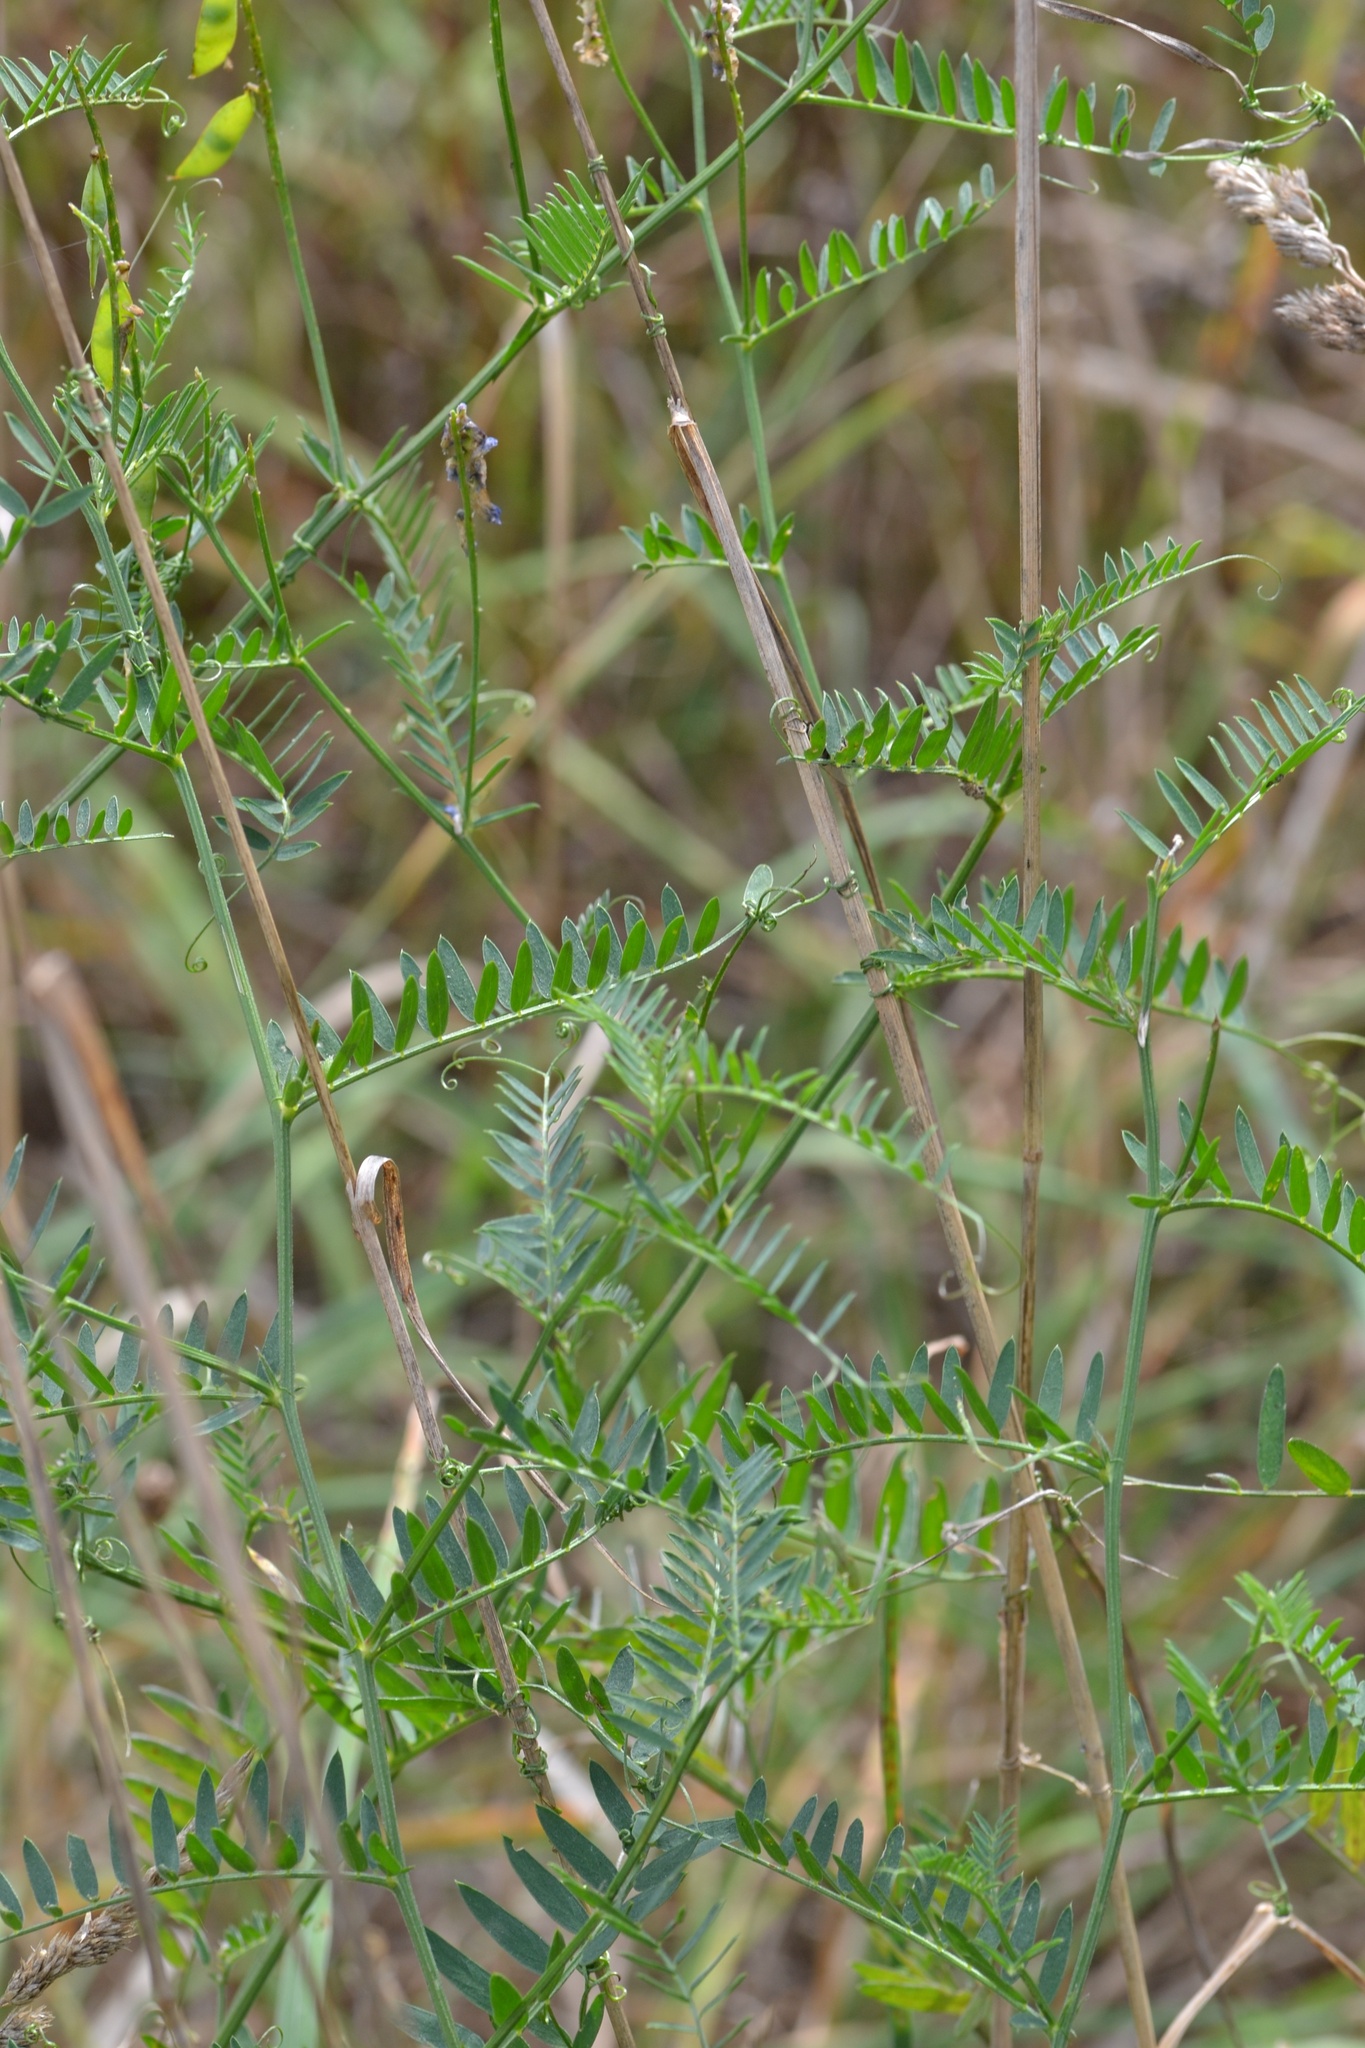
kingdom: Plantae
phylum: Tracheophyta
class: Magnoliopsida
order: Fabales
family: Fabaceae
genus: Vicia
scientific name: Vicia cracca
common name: Bird vetch
